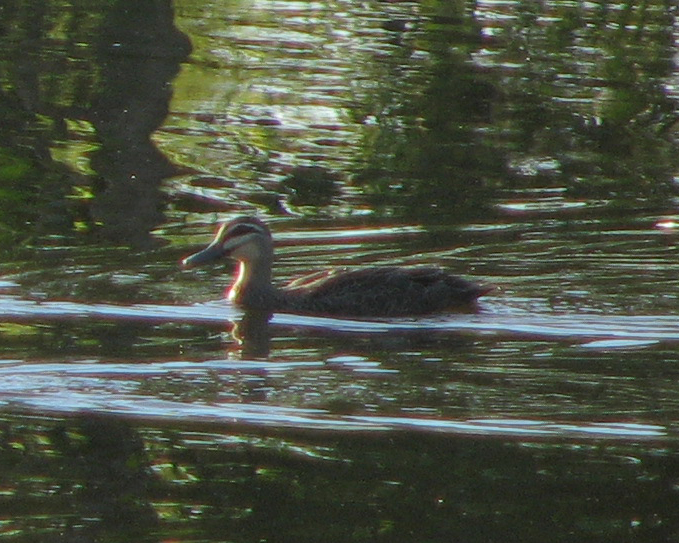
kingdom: Animalia
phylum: Chordata
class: Aves
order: Anseriformes
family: Anatidae
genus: Anas
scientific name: Anas superciliosa
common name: Pacific black duck
